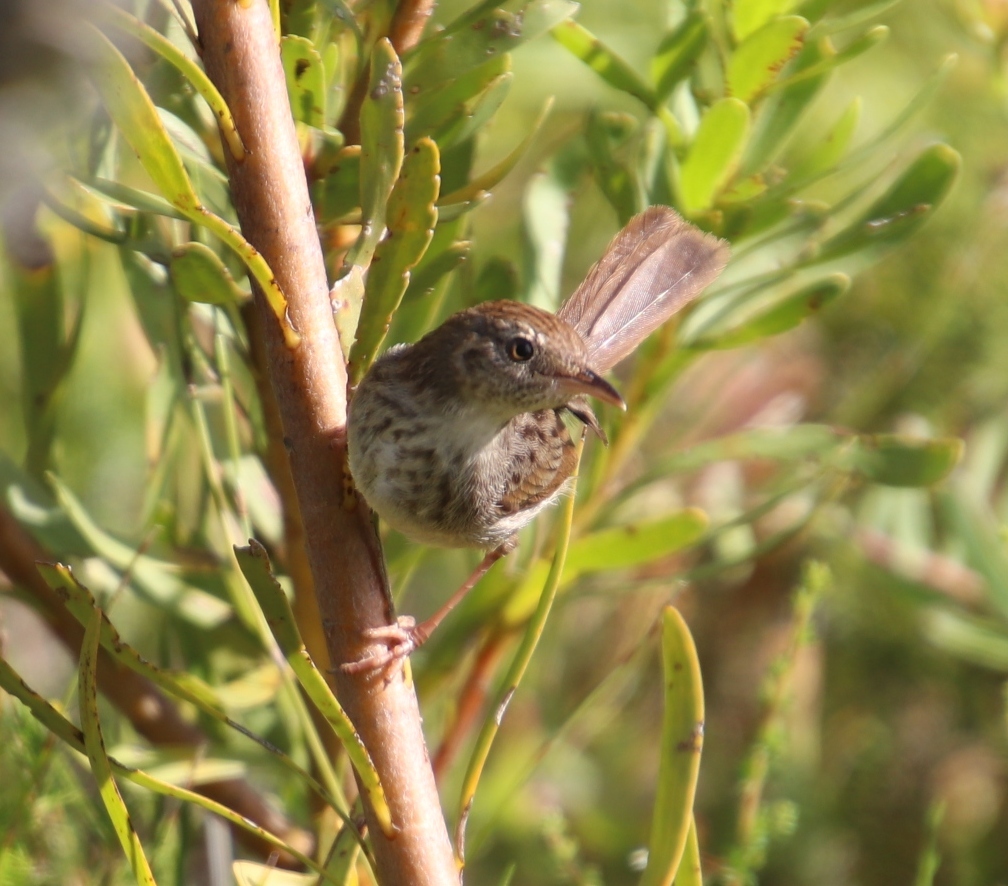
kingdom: Animalia
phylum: Chordata
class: Aves
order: Passeriformes
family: Cisticolidae
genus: Prinia
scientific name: Prinia maculosa
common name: Karoo prinia
